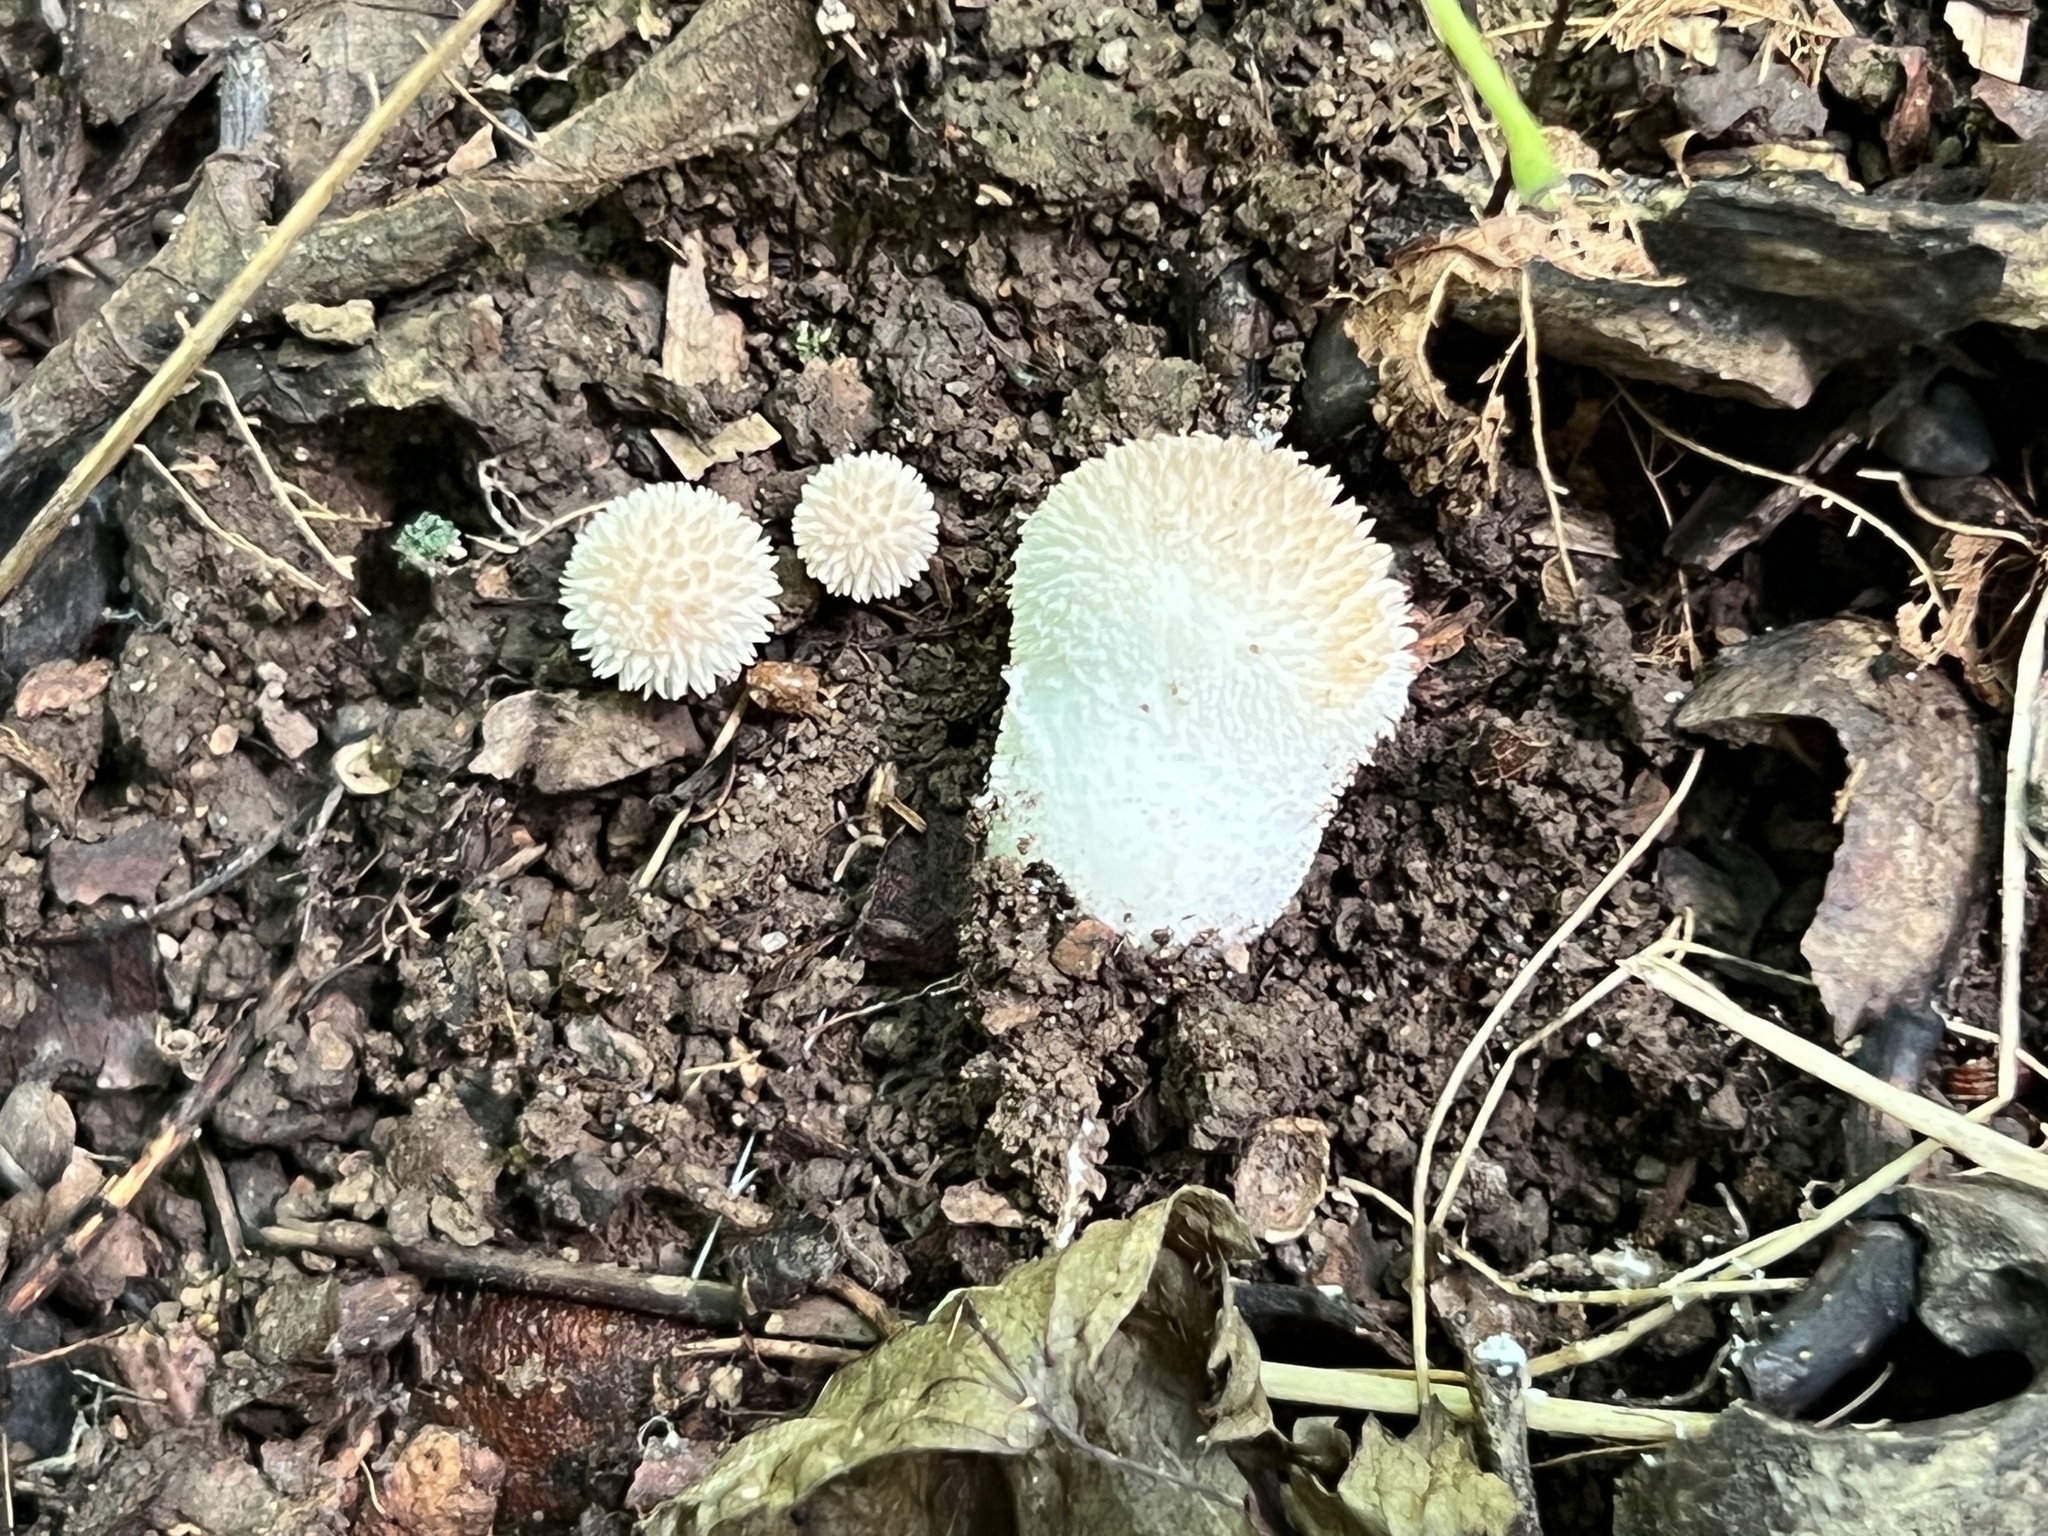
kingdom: Fungi
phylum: Basidiomycota
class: Agaricomycetes
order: Agaricales
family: Lycoperdaceae
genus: Lycoperdon
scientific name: Lycoperdon echinatum
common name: Hedgehog puffball
